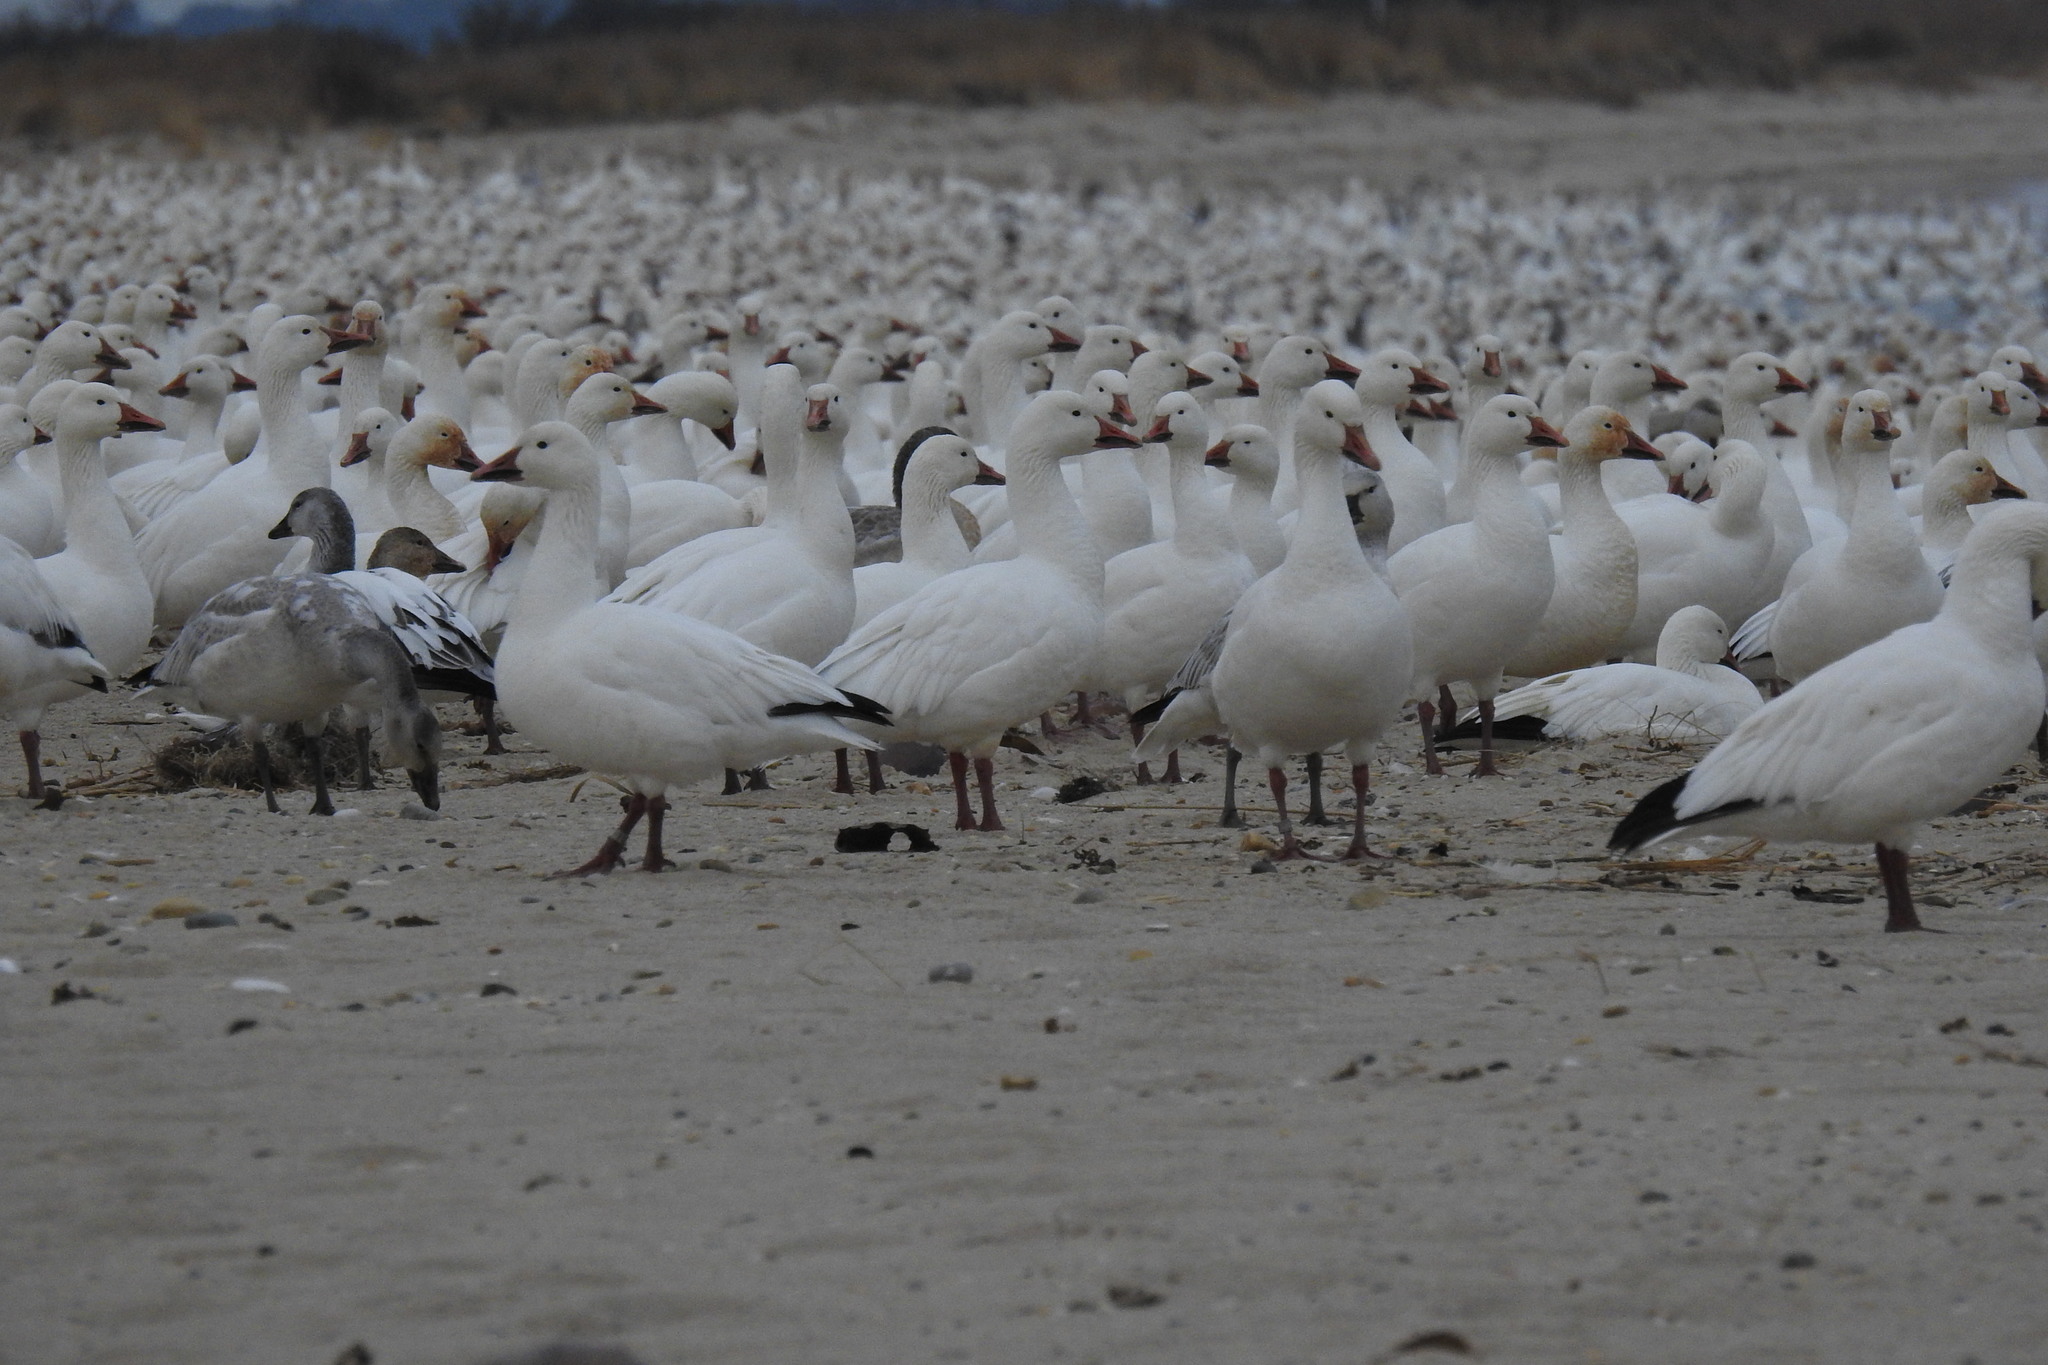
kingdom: Animalia
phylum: Chordata
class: Aves
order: Anseriformes
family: Anatidae
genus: Anser
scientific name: Anser caerulescens
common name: Snow goose
